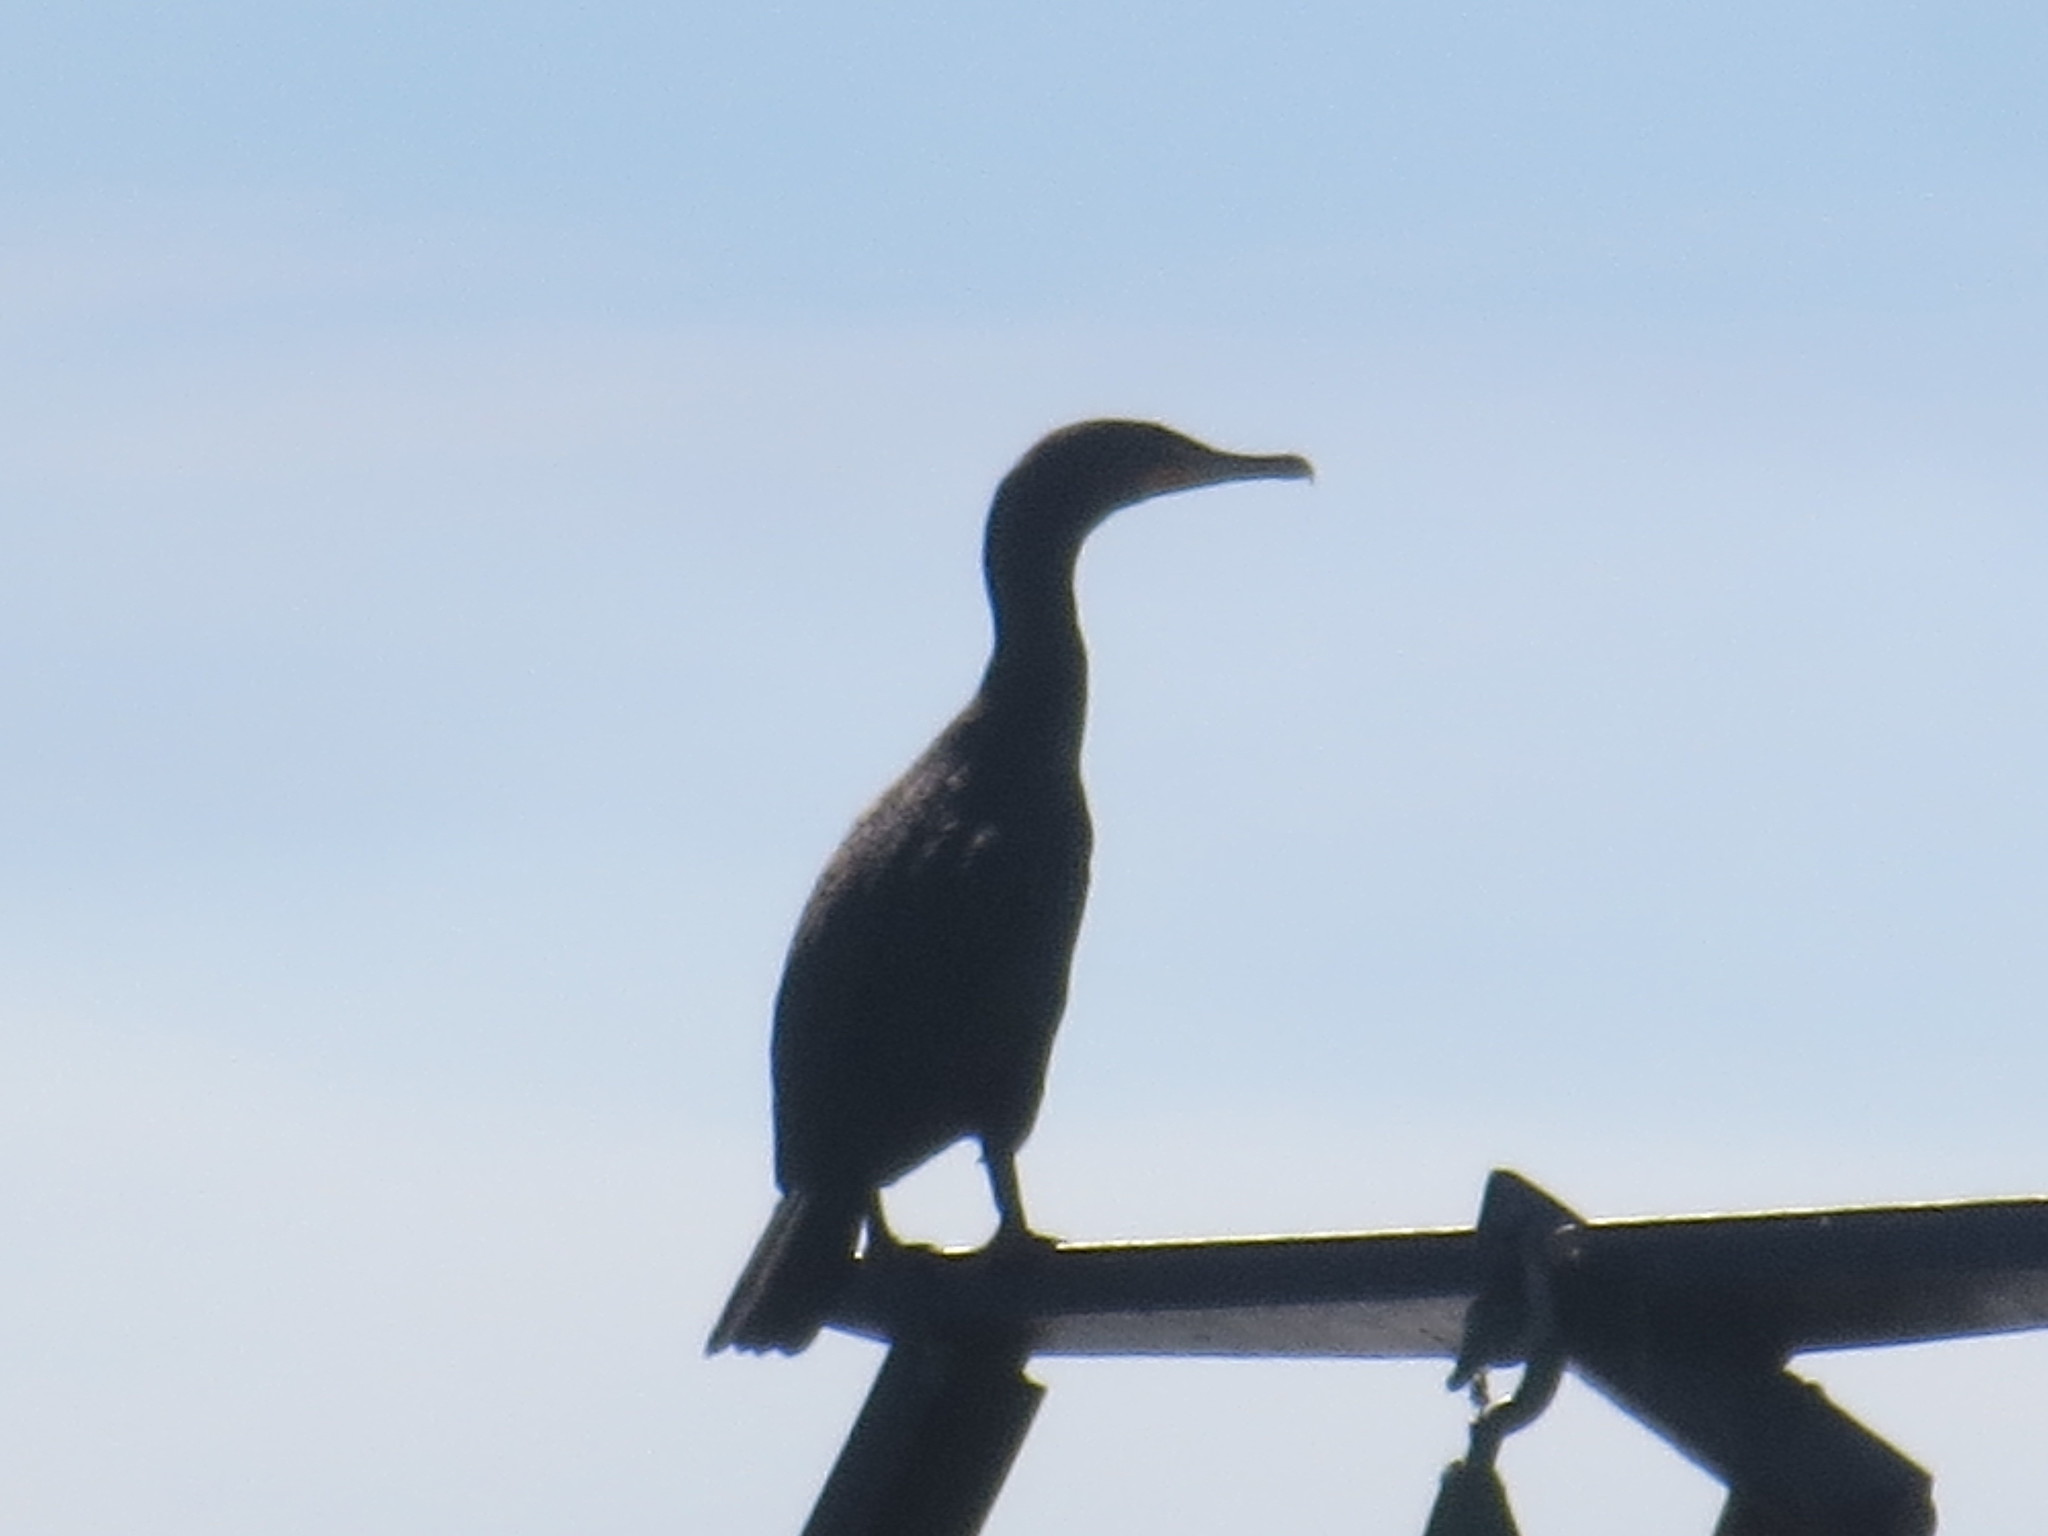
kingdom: Animalia
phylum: Chordata
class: Aves
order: Suliformes
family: Phalacrocoracidae
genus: Phalacrocorax
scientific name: Phalacrocorax auritus
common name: Double-crested cormorant
